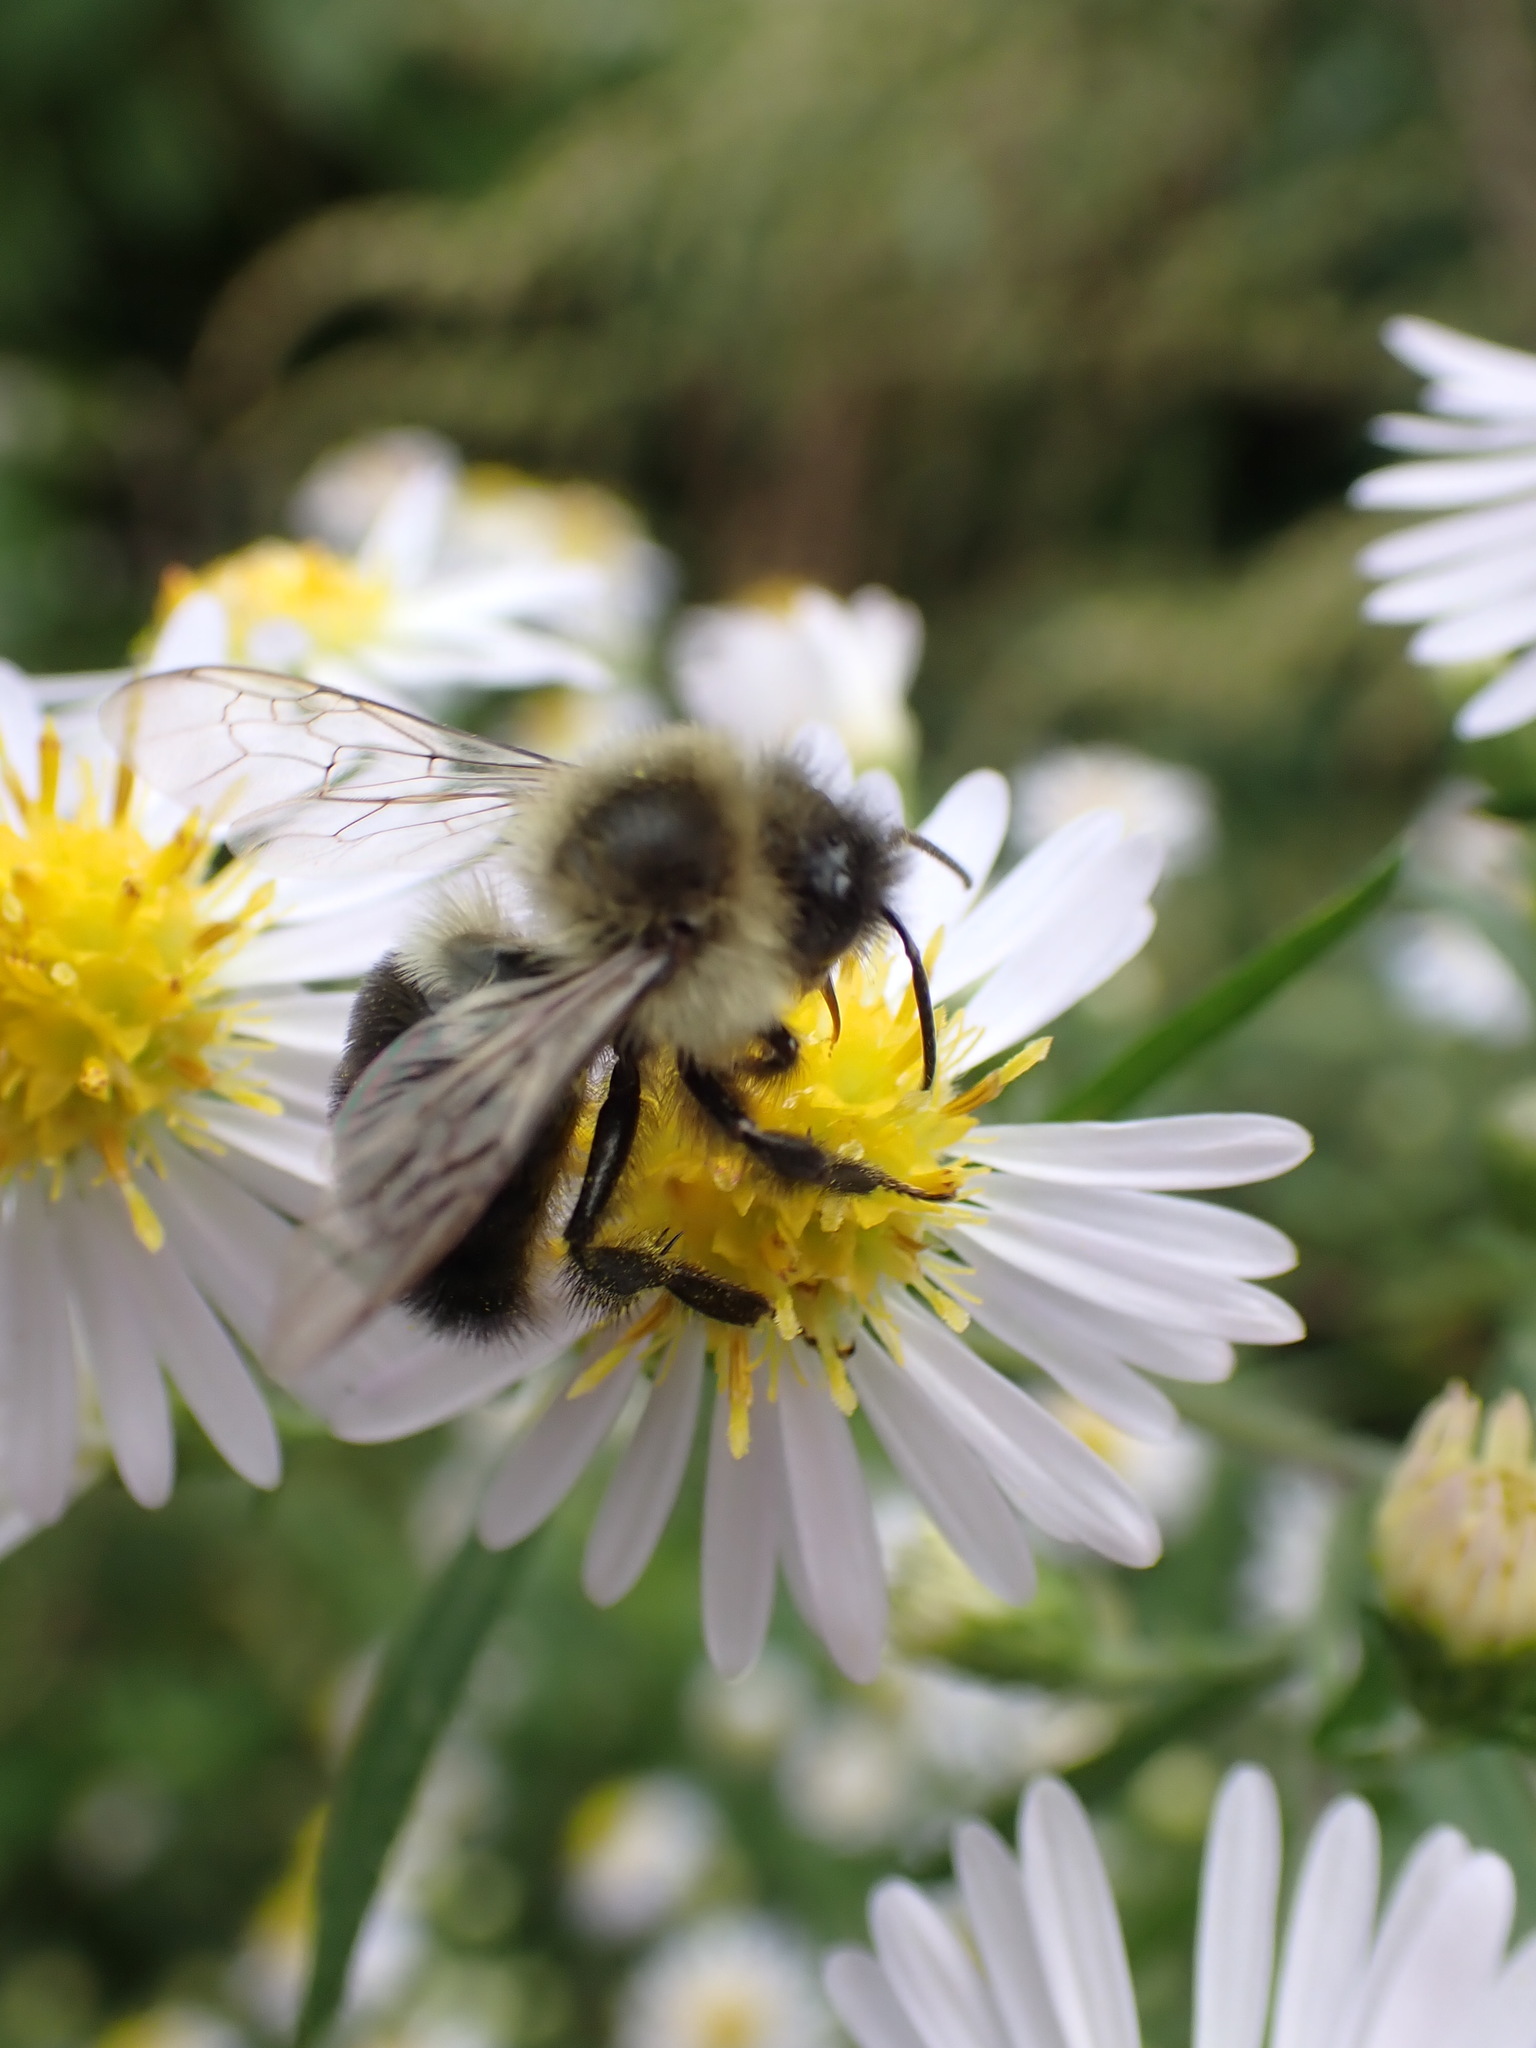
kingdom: Animalia
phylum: Arthropoda
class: Insecta
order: Hymenoptera
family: Apidae
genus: Bombus
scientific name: Bombus impatiens
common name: Common eastern bumble bee
